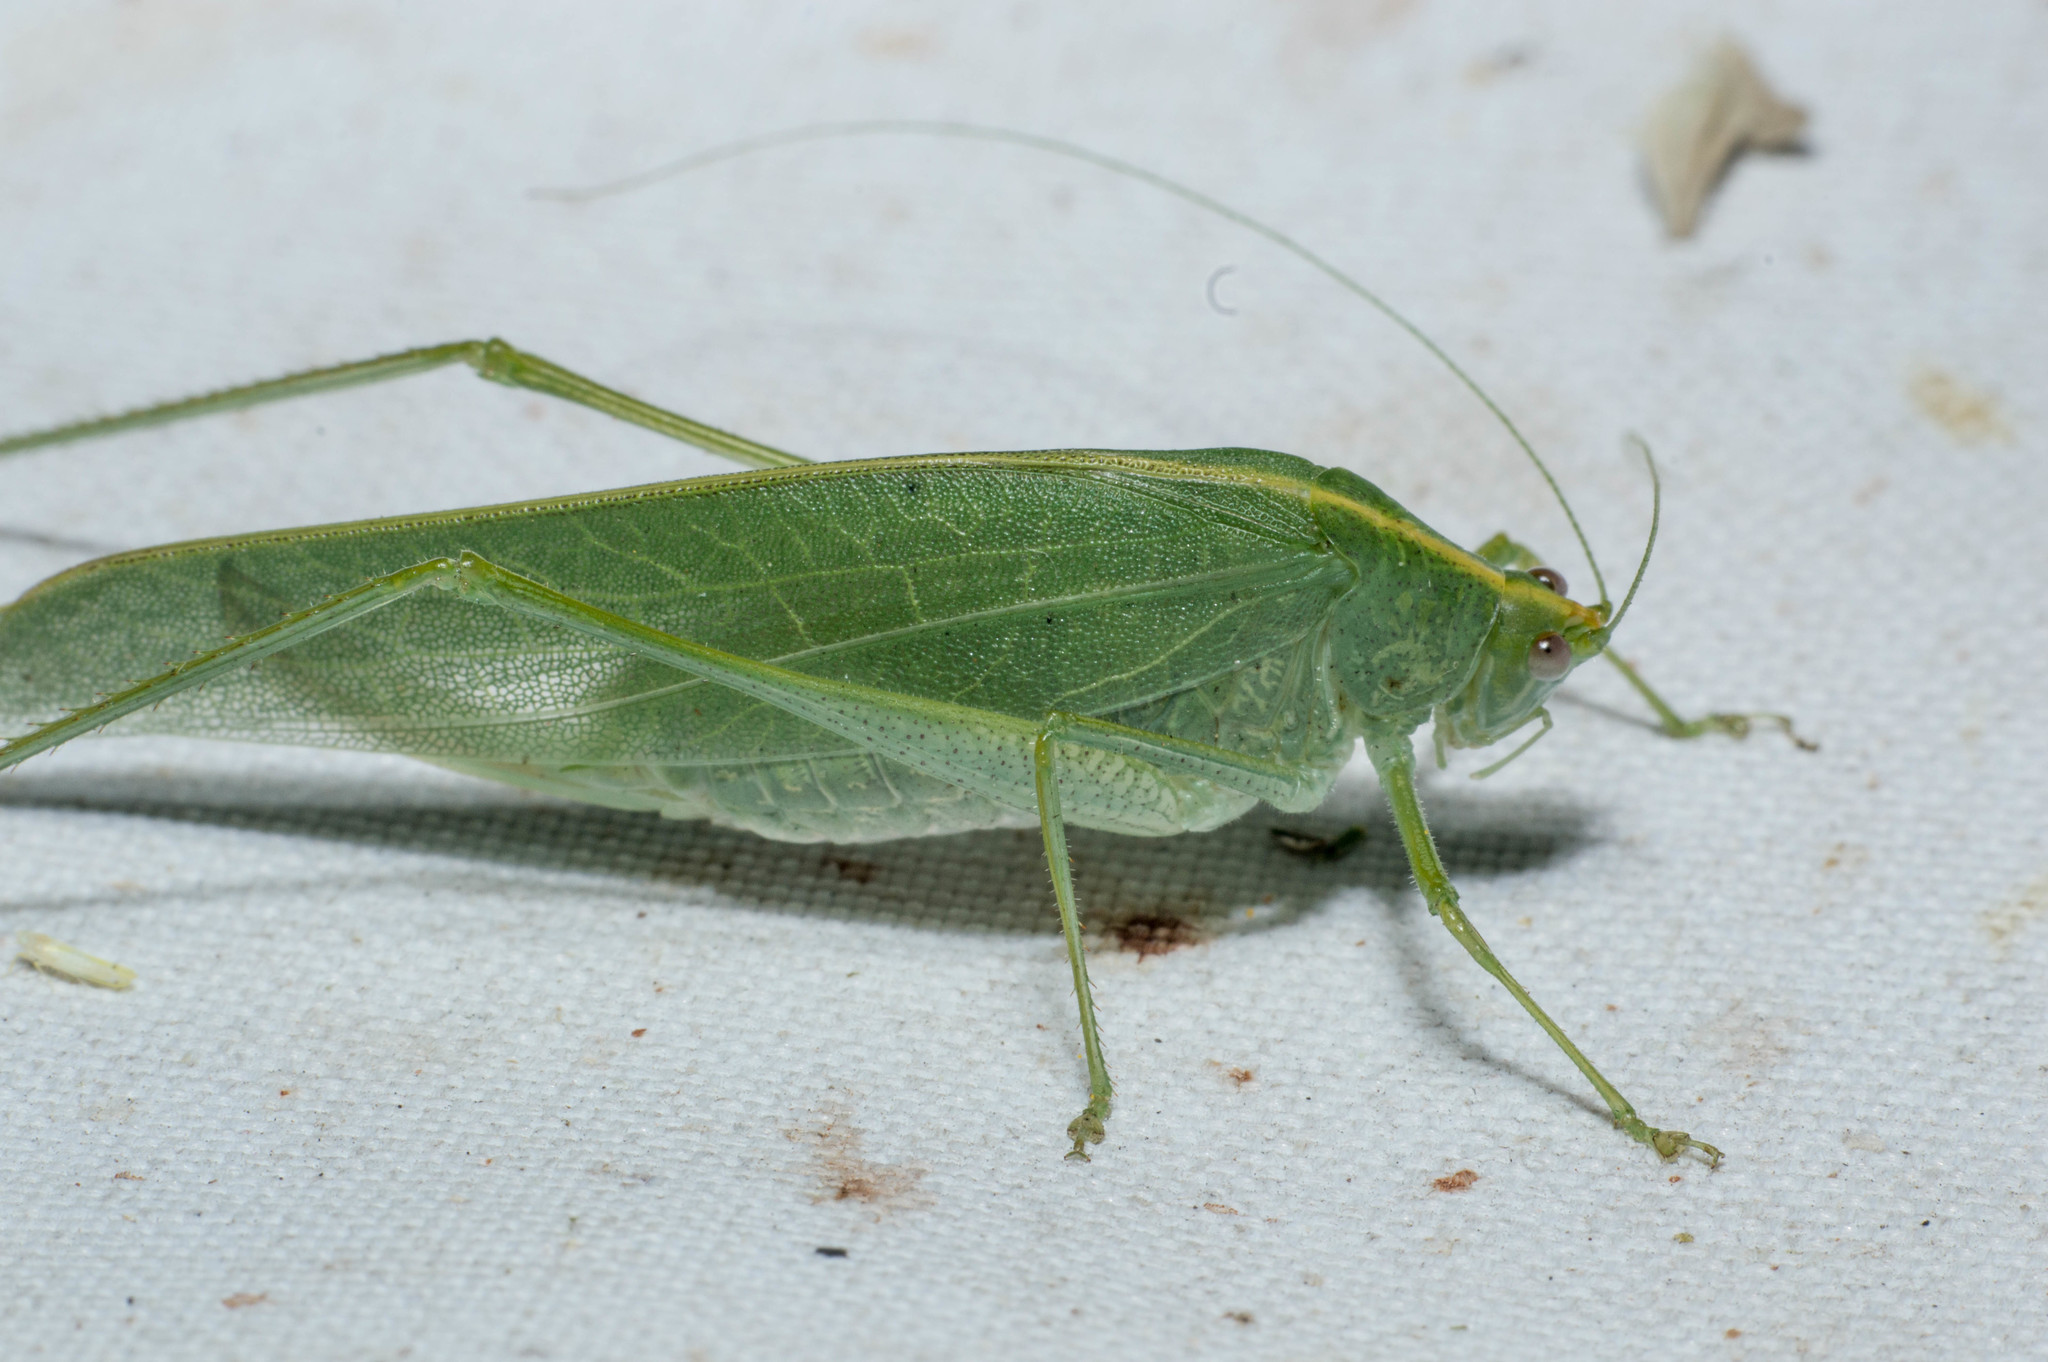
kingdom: Animalia
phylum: Arthropoda
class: Insecta
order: Orthoptera
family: Tettigoniidae
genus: Grammadera
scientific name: Grammadera clara
